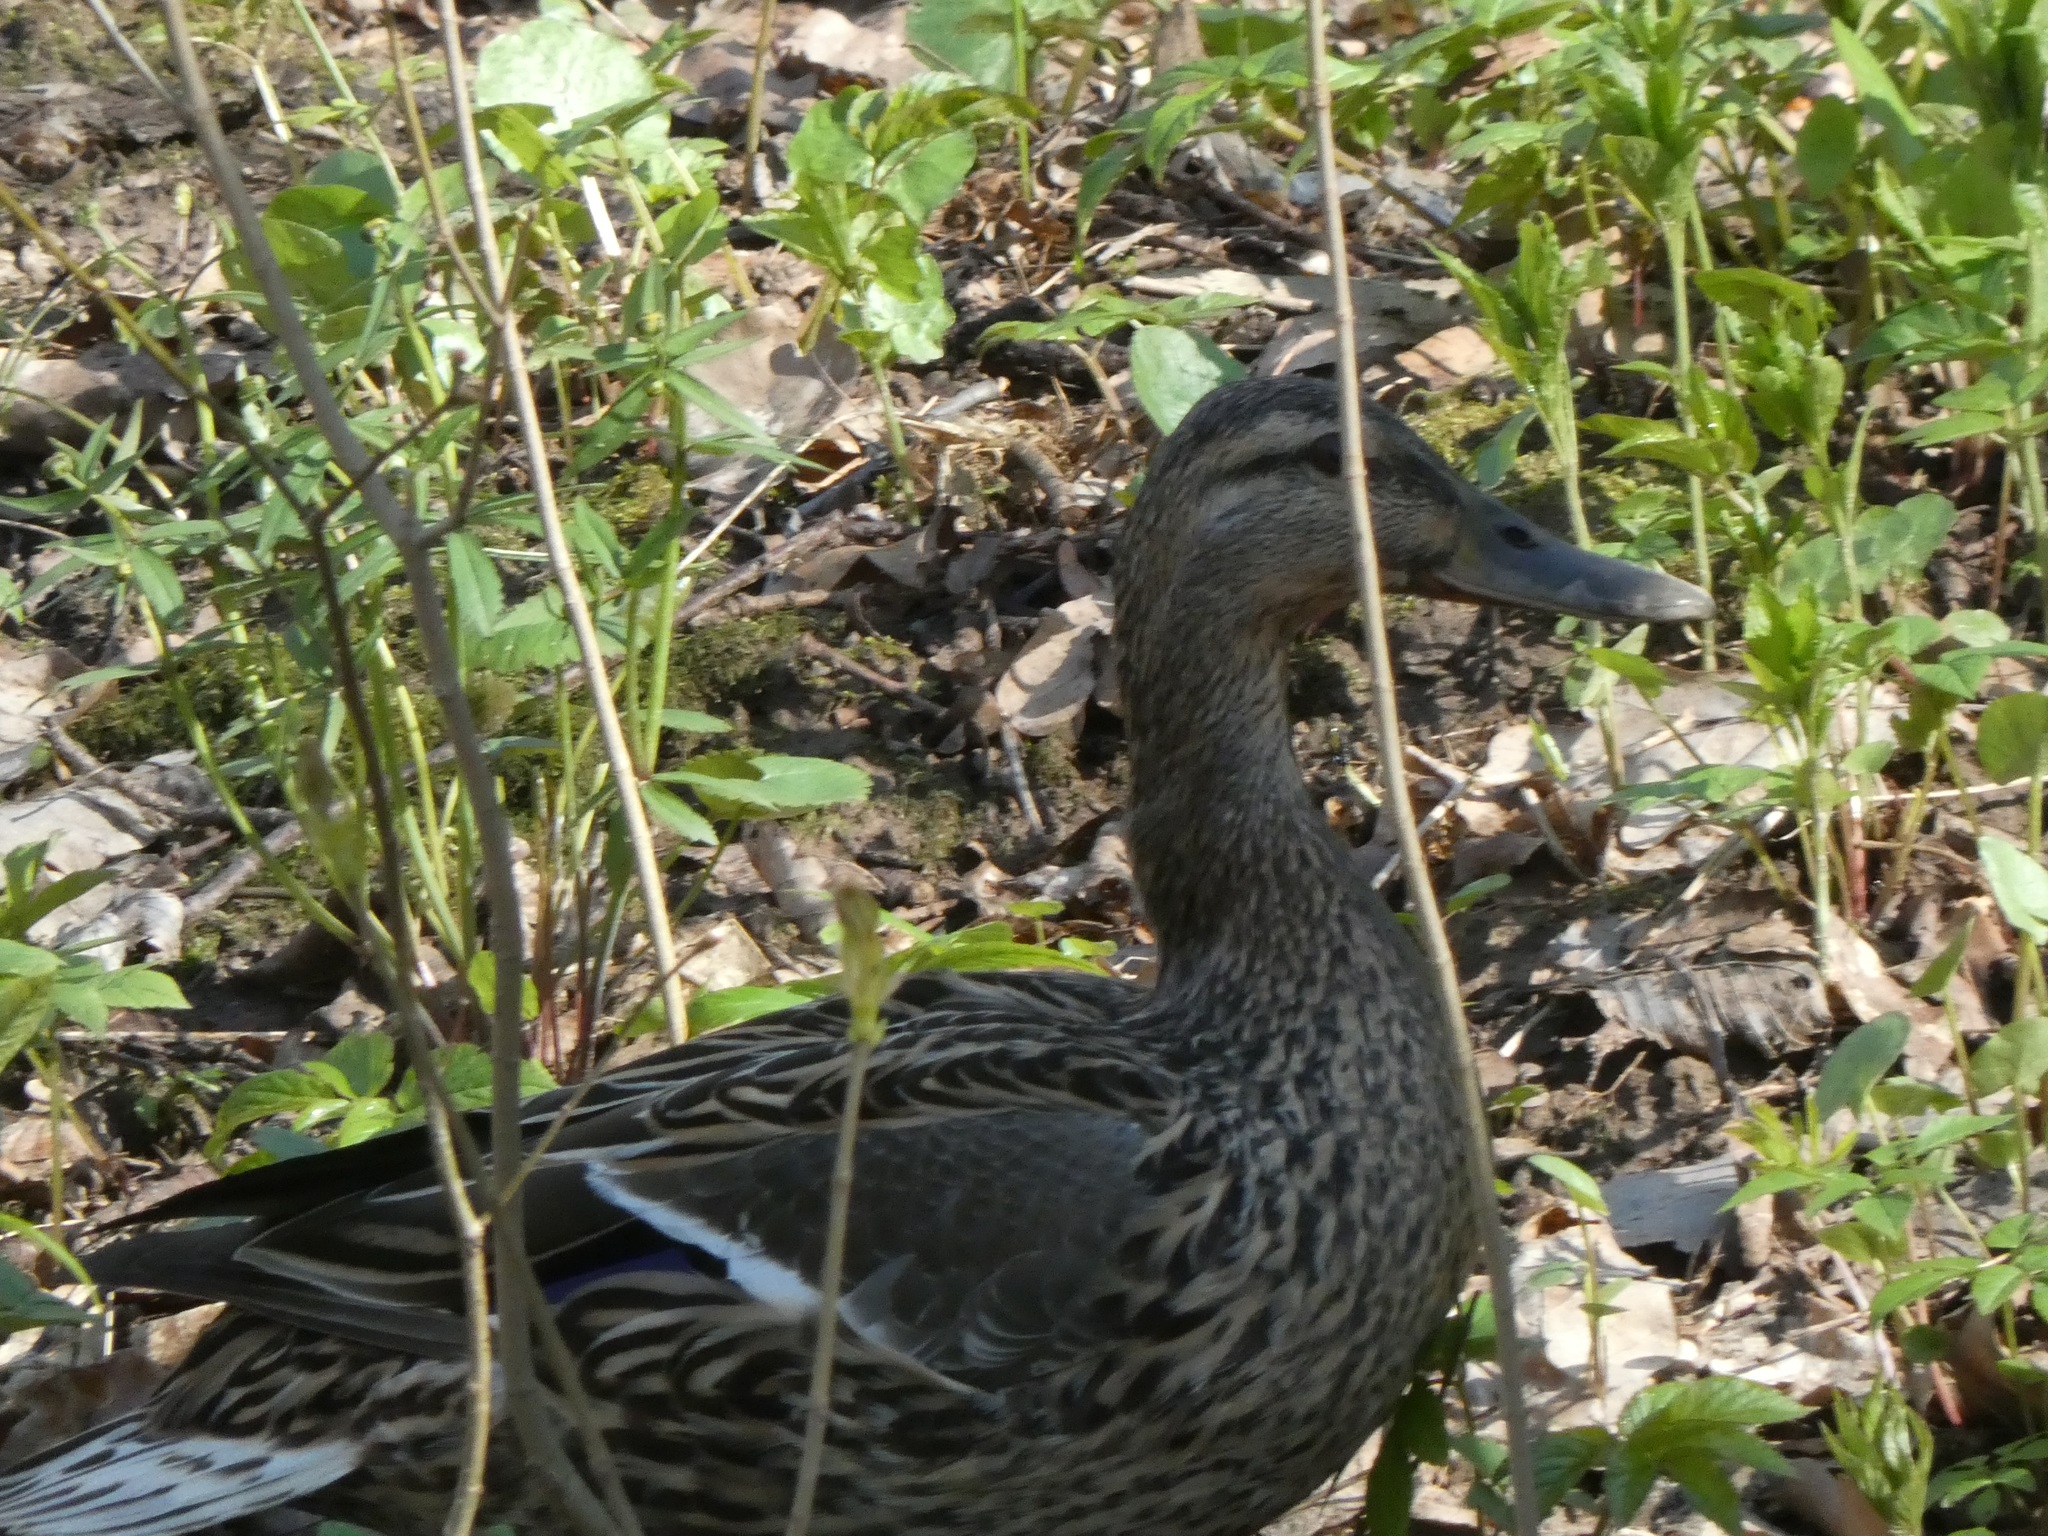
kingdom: Animalia
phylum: Chordata
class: Aves
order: Anseriformes
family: Anatidae
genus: Anas
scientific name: Anas platyrhynchos
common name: Mallard
